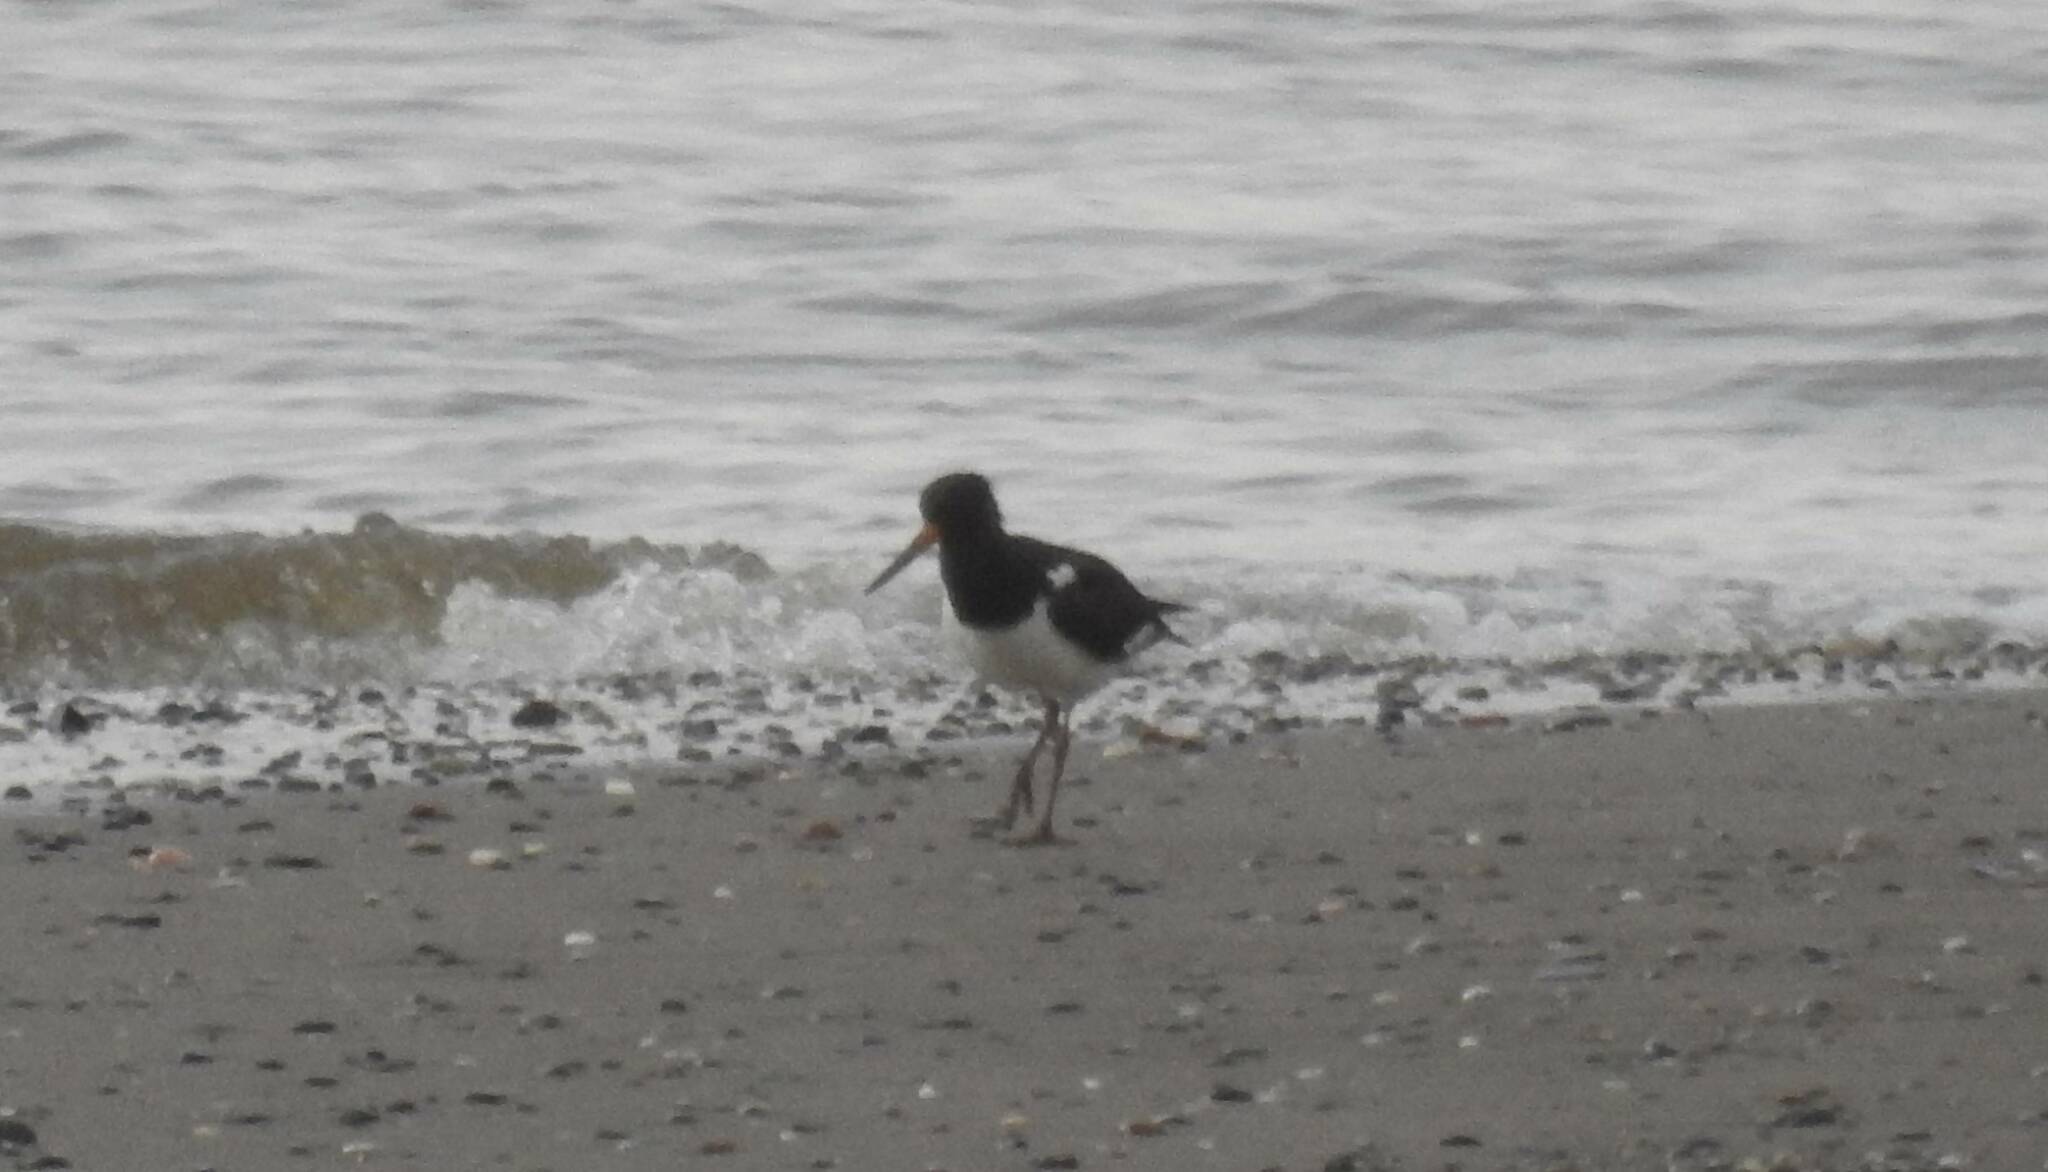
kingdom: Animalia
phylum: Chordata
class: Aves
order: Charadriiformes
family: Haematopodidae
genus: Haematopus
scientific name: Haematopus ostralegus
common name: Eurasian oystercatcher
